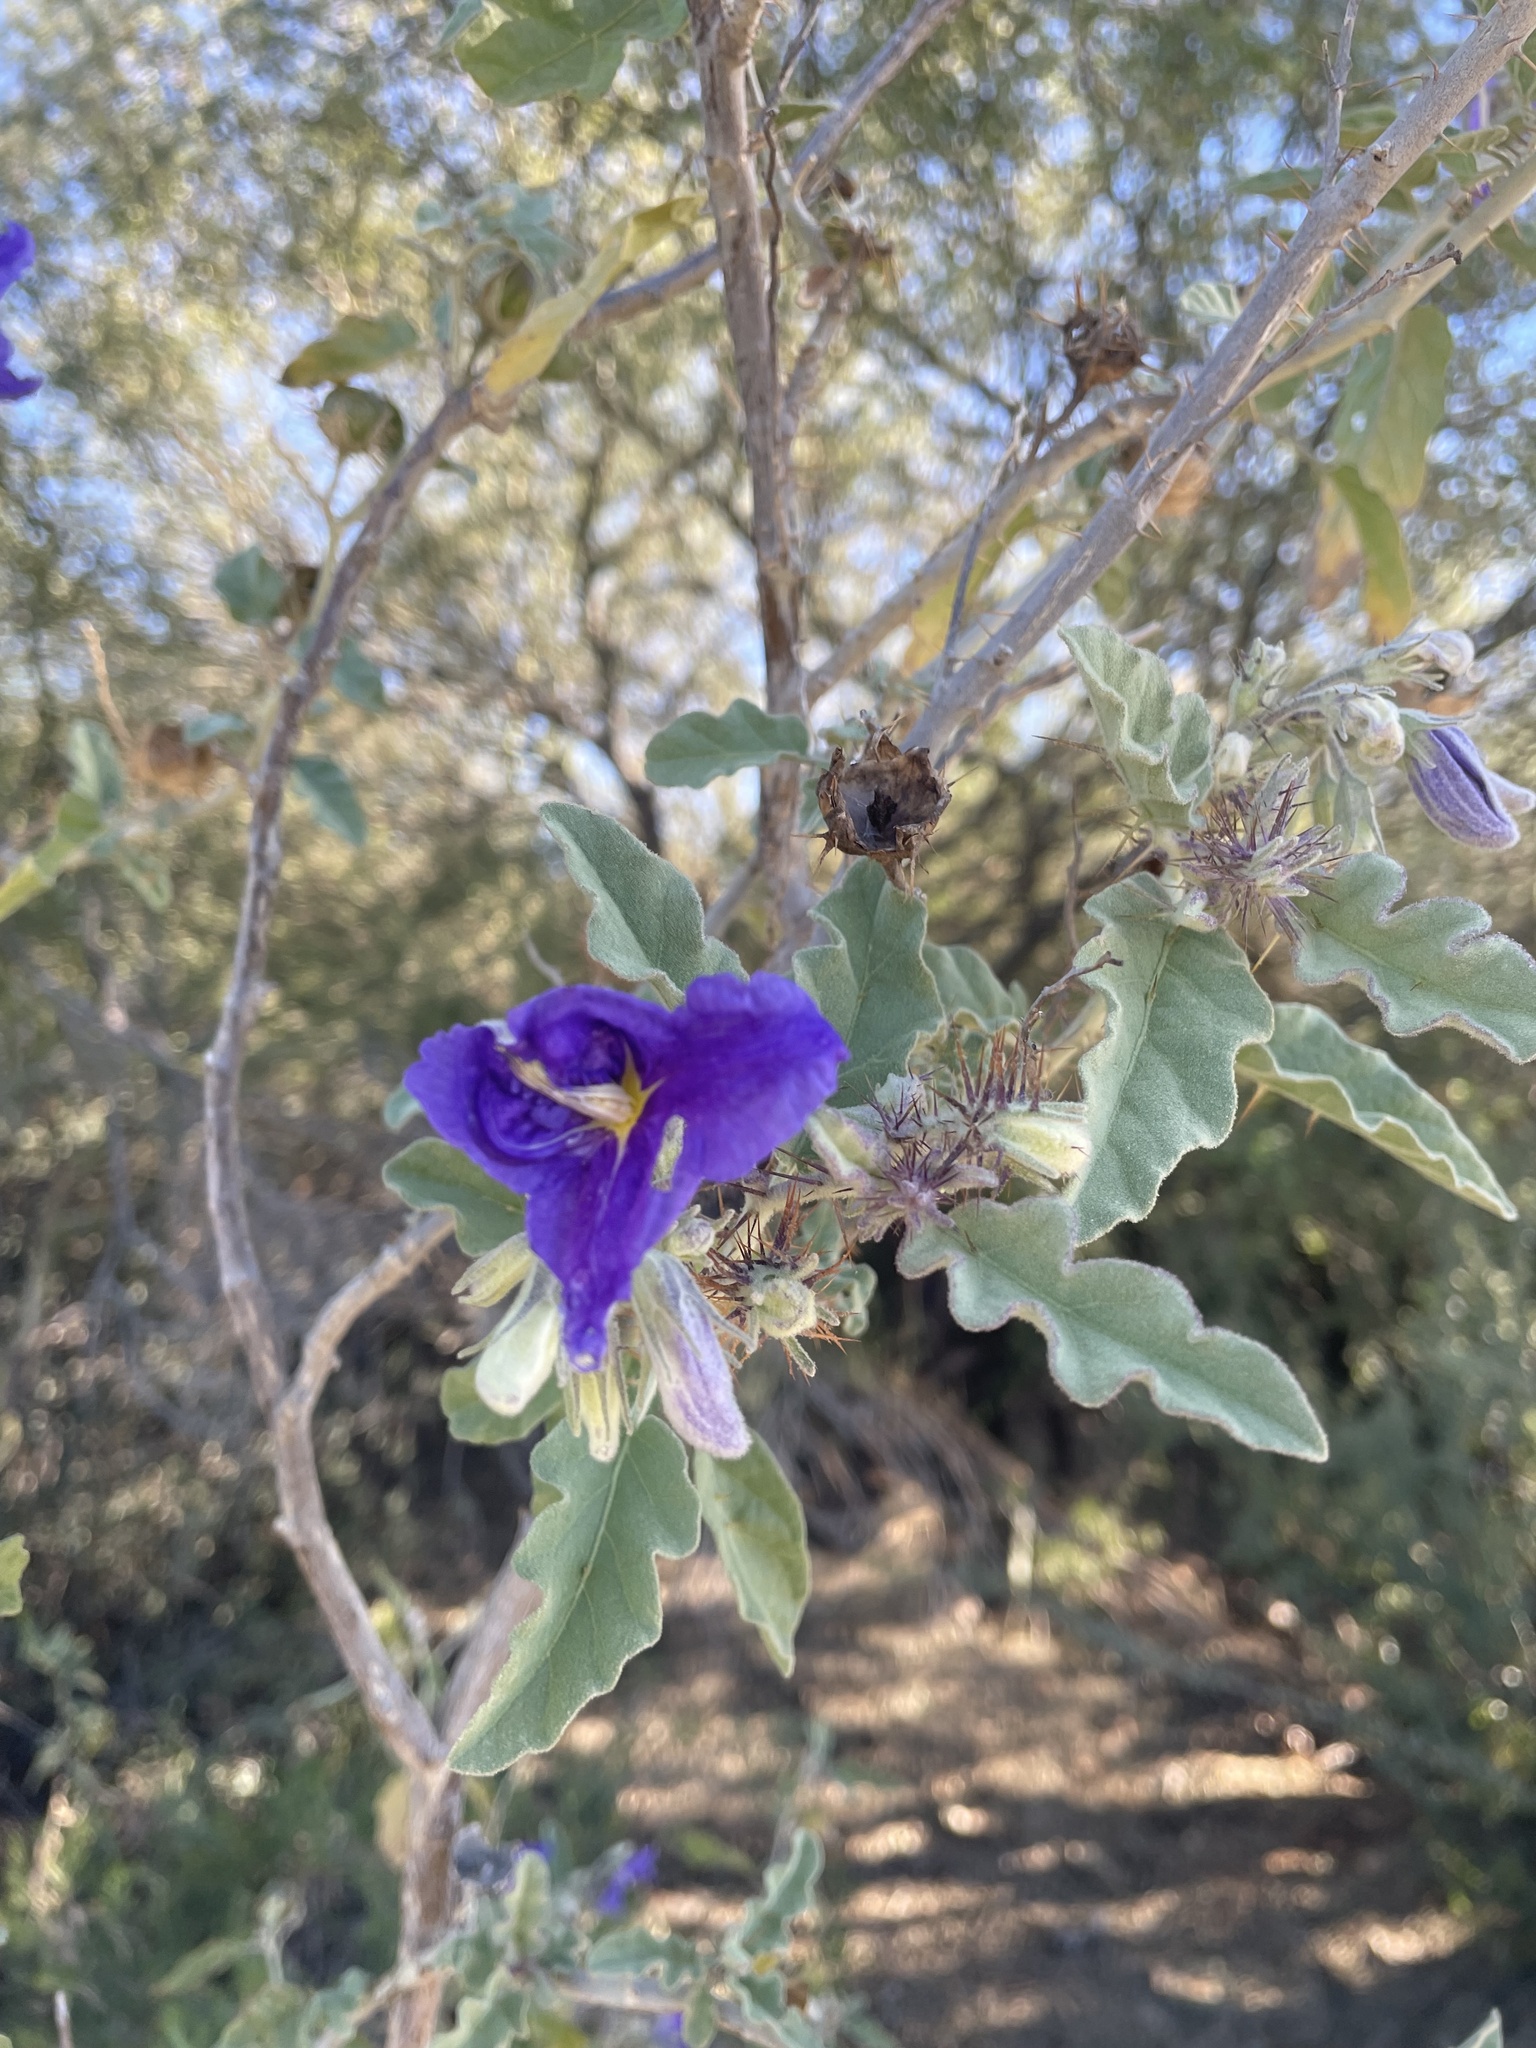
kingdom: Plantae
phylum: Tracheophyta
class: Magnoliopsida
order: Solanales
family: Solanaceae
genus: Solanum
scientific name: Solanum houstonii
